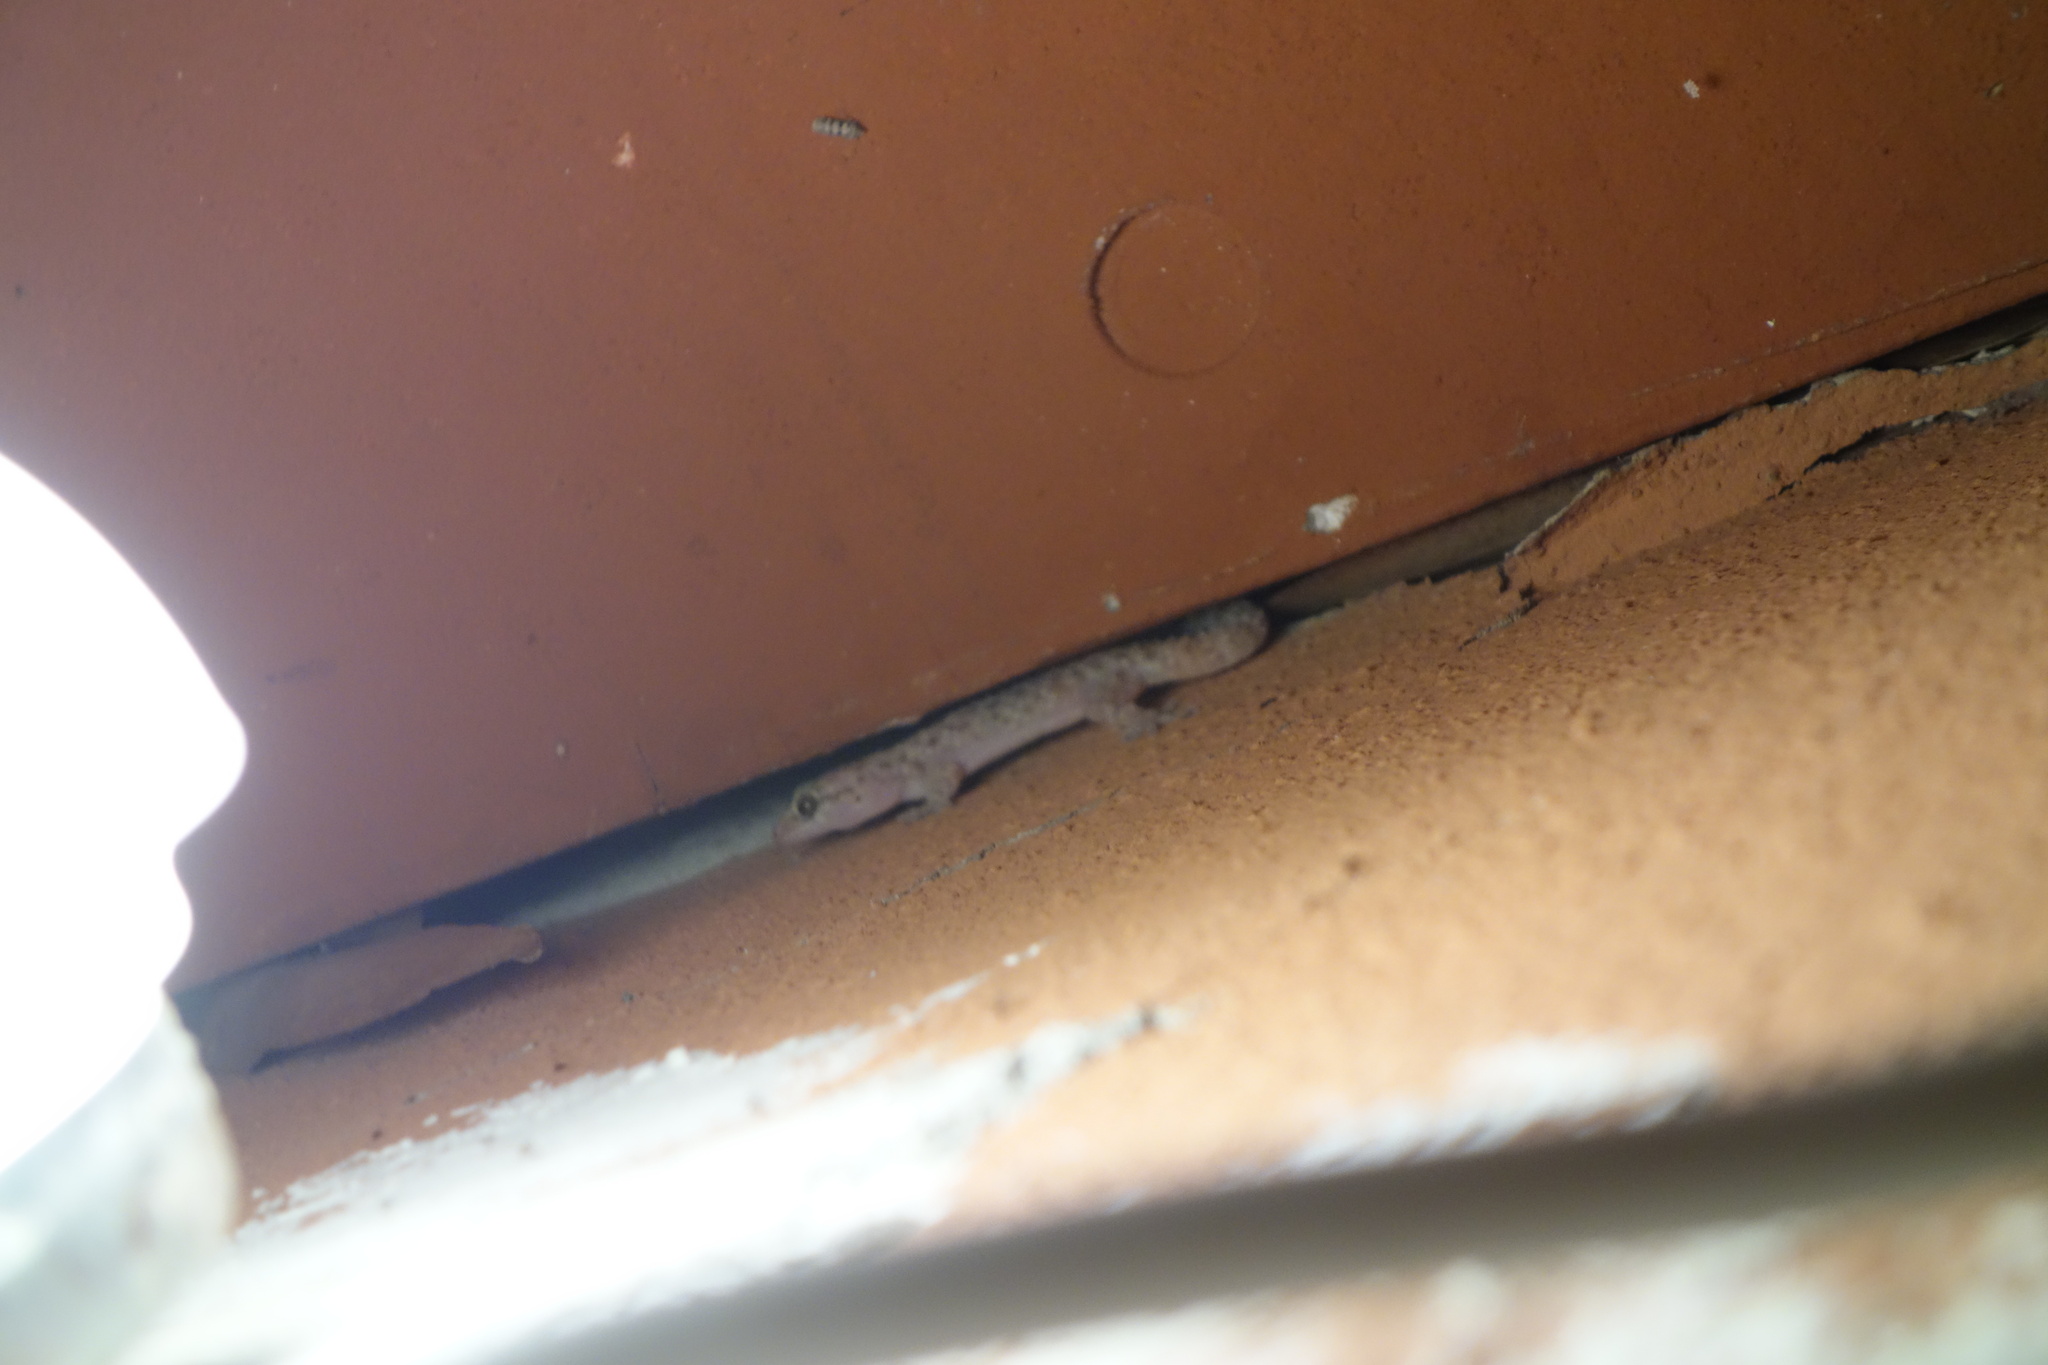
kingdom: Animalia
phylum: Chordata
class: Squamata
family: Gekkonidae
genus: Hemidactylus
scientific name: Hemidactylus turcicus
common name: Turkish gecko
